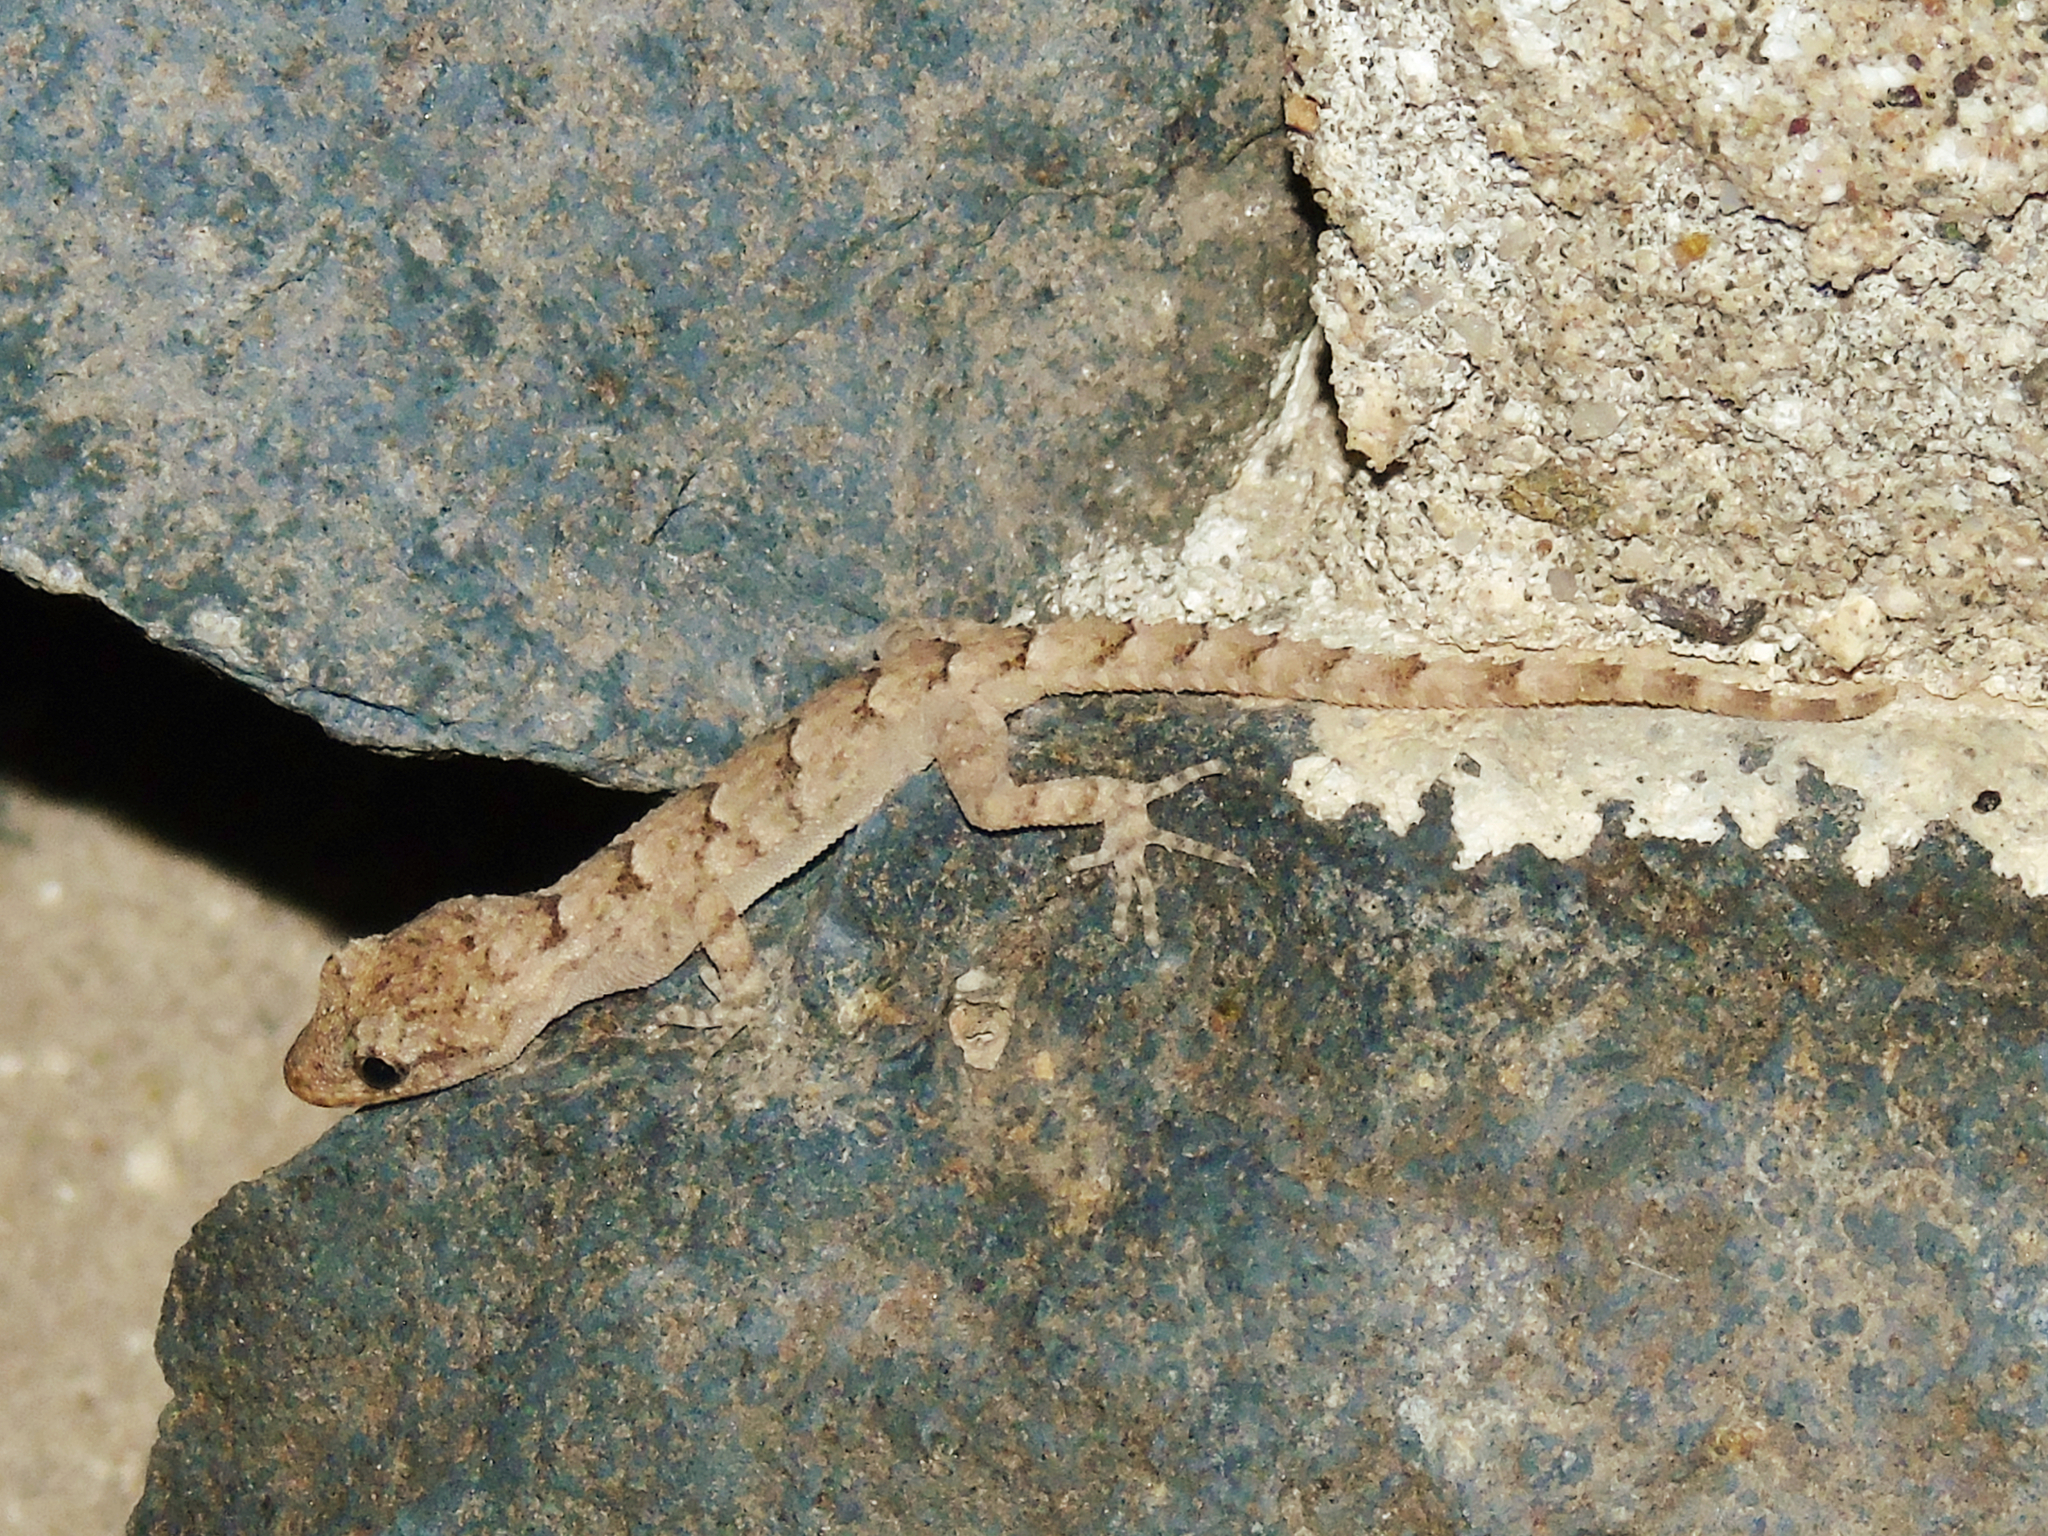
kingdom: Animalia
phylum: Chordata
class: Squamata
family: Gekkonidae
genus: Mediodactylus
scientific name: Mediodactylus heterocercus
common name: Asia minor thin-toed gecko
